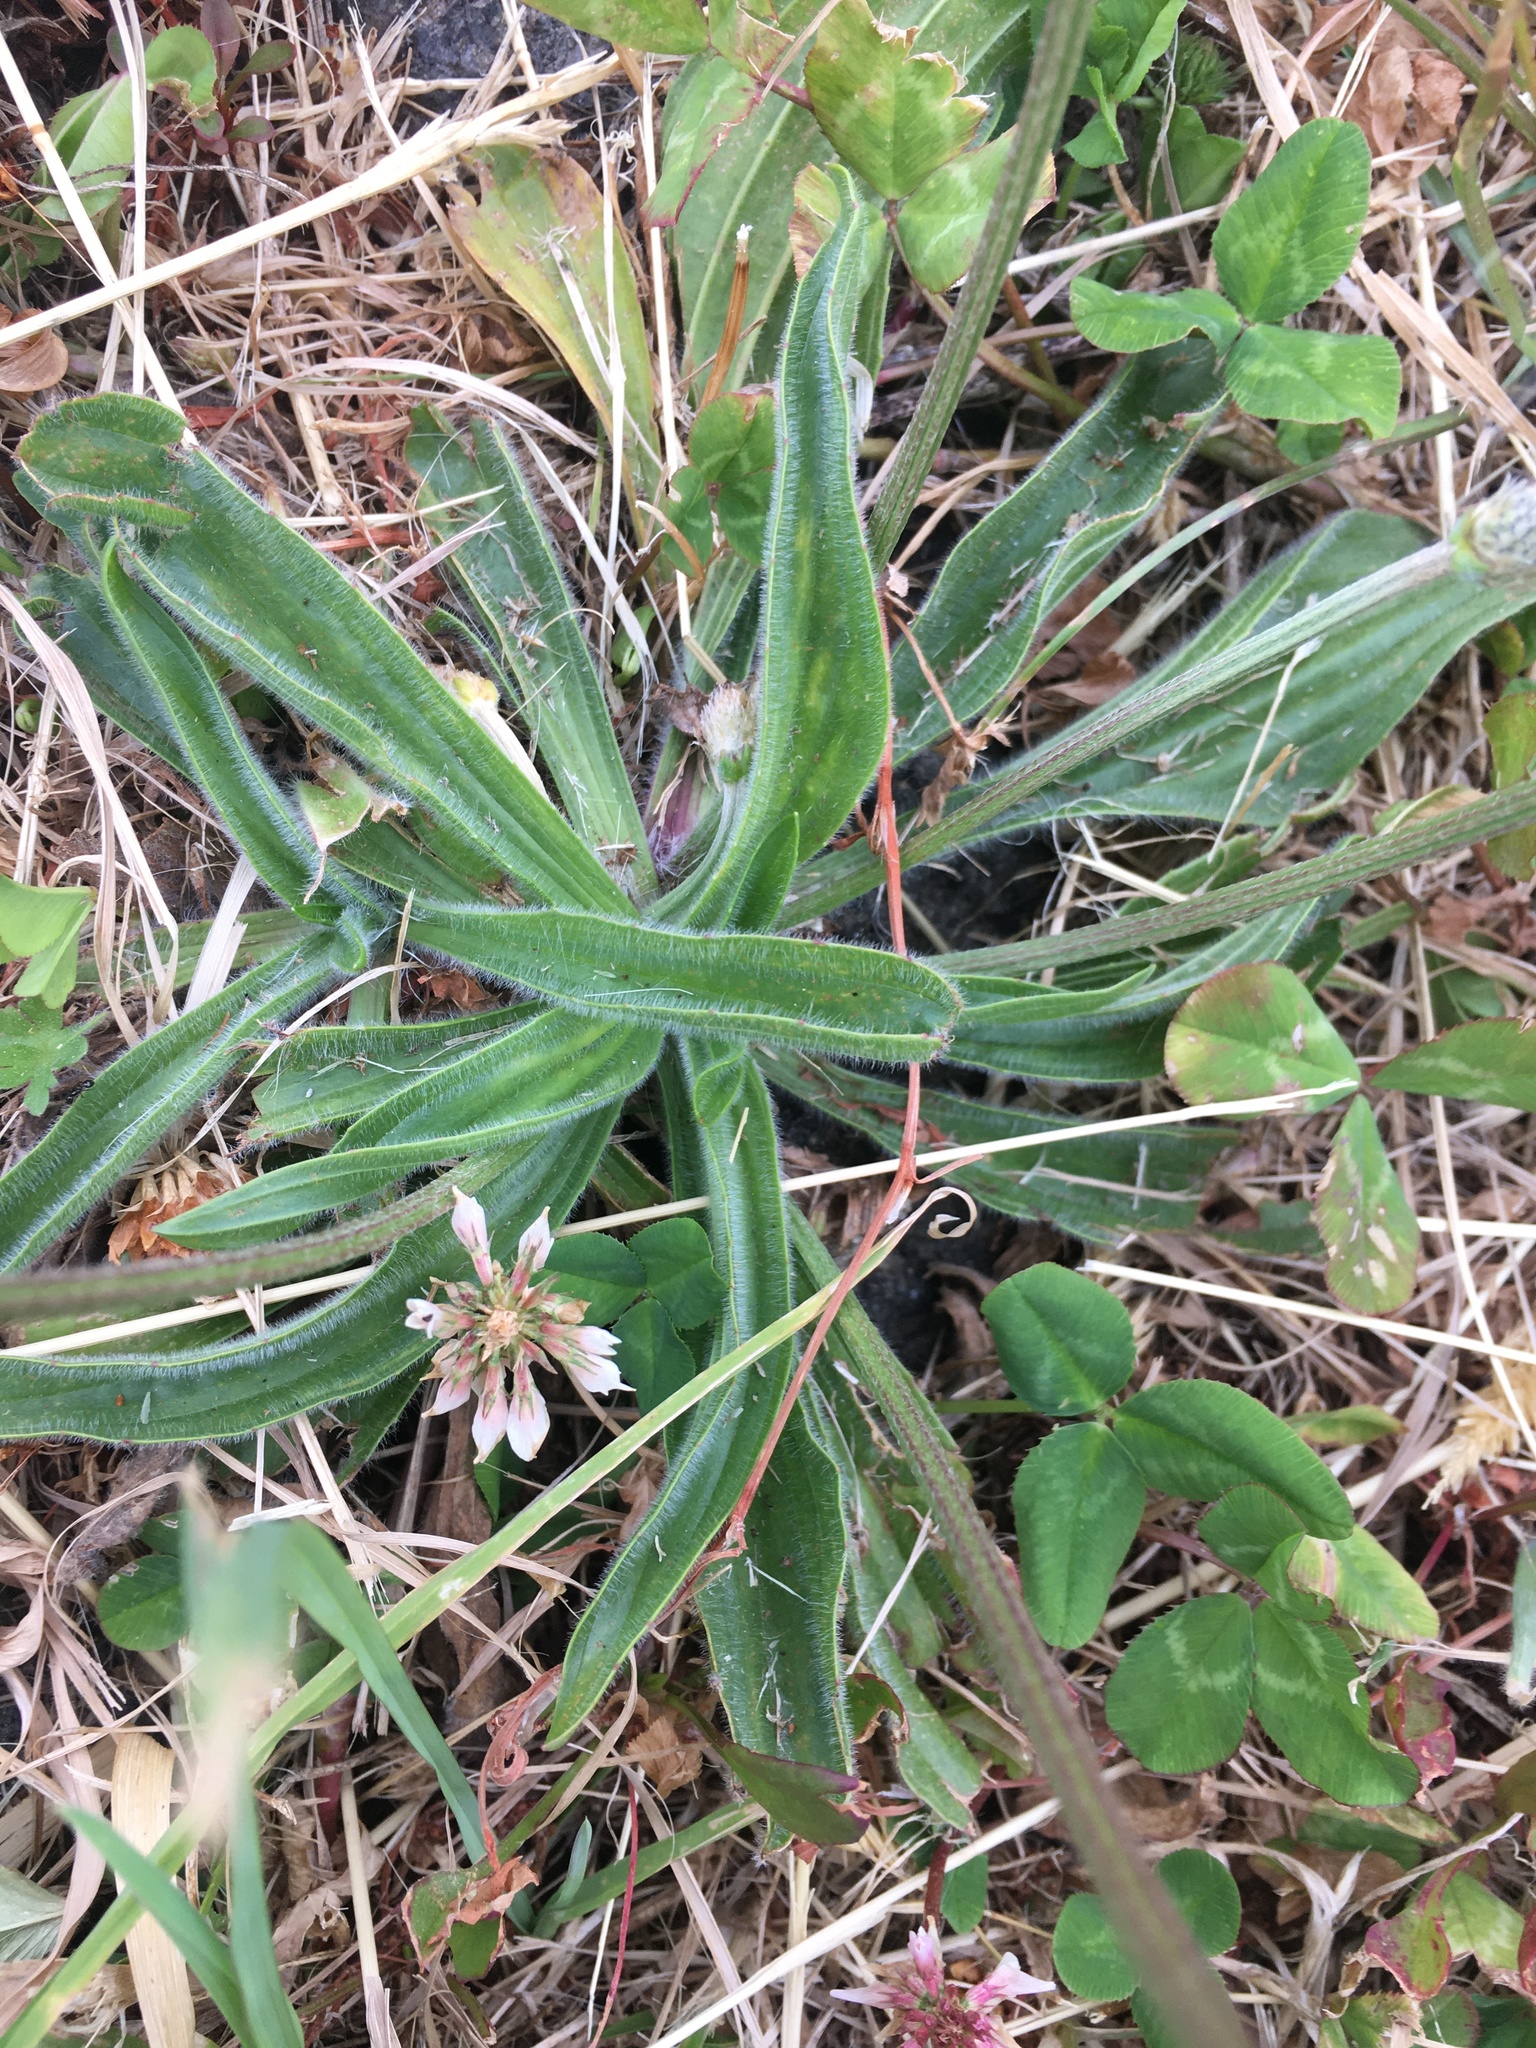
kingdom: Plantae
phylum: Tracheophyta
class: Magnoliopsida
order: Lamiales
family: Plantaginaceae
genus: Plantago
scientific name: Plantago lanceolata
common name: Ribwort plantain
